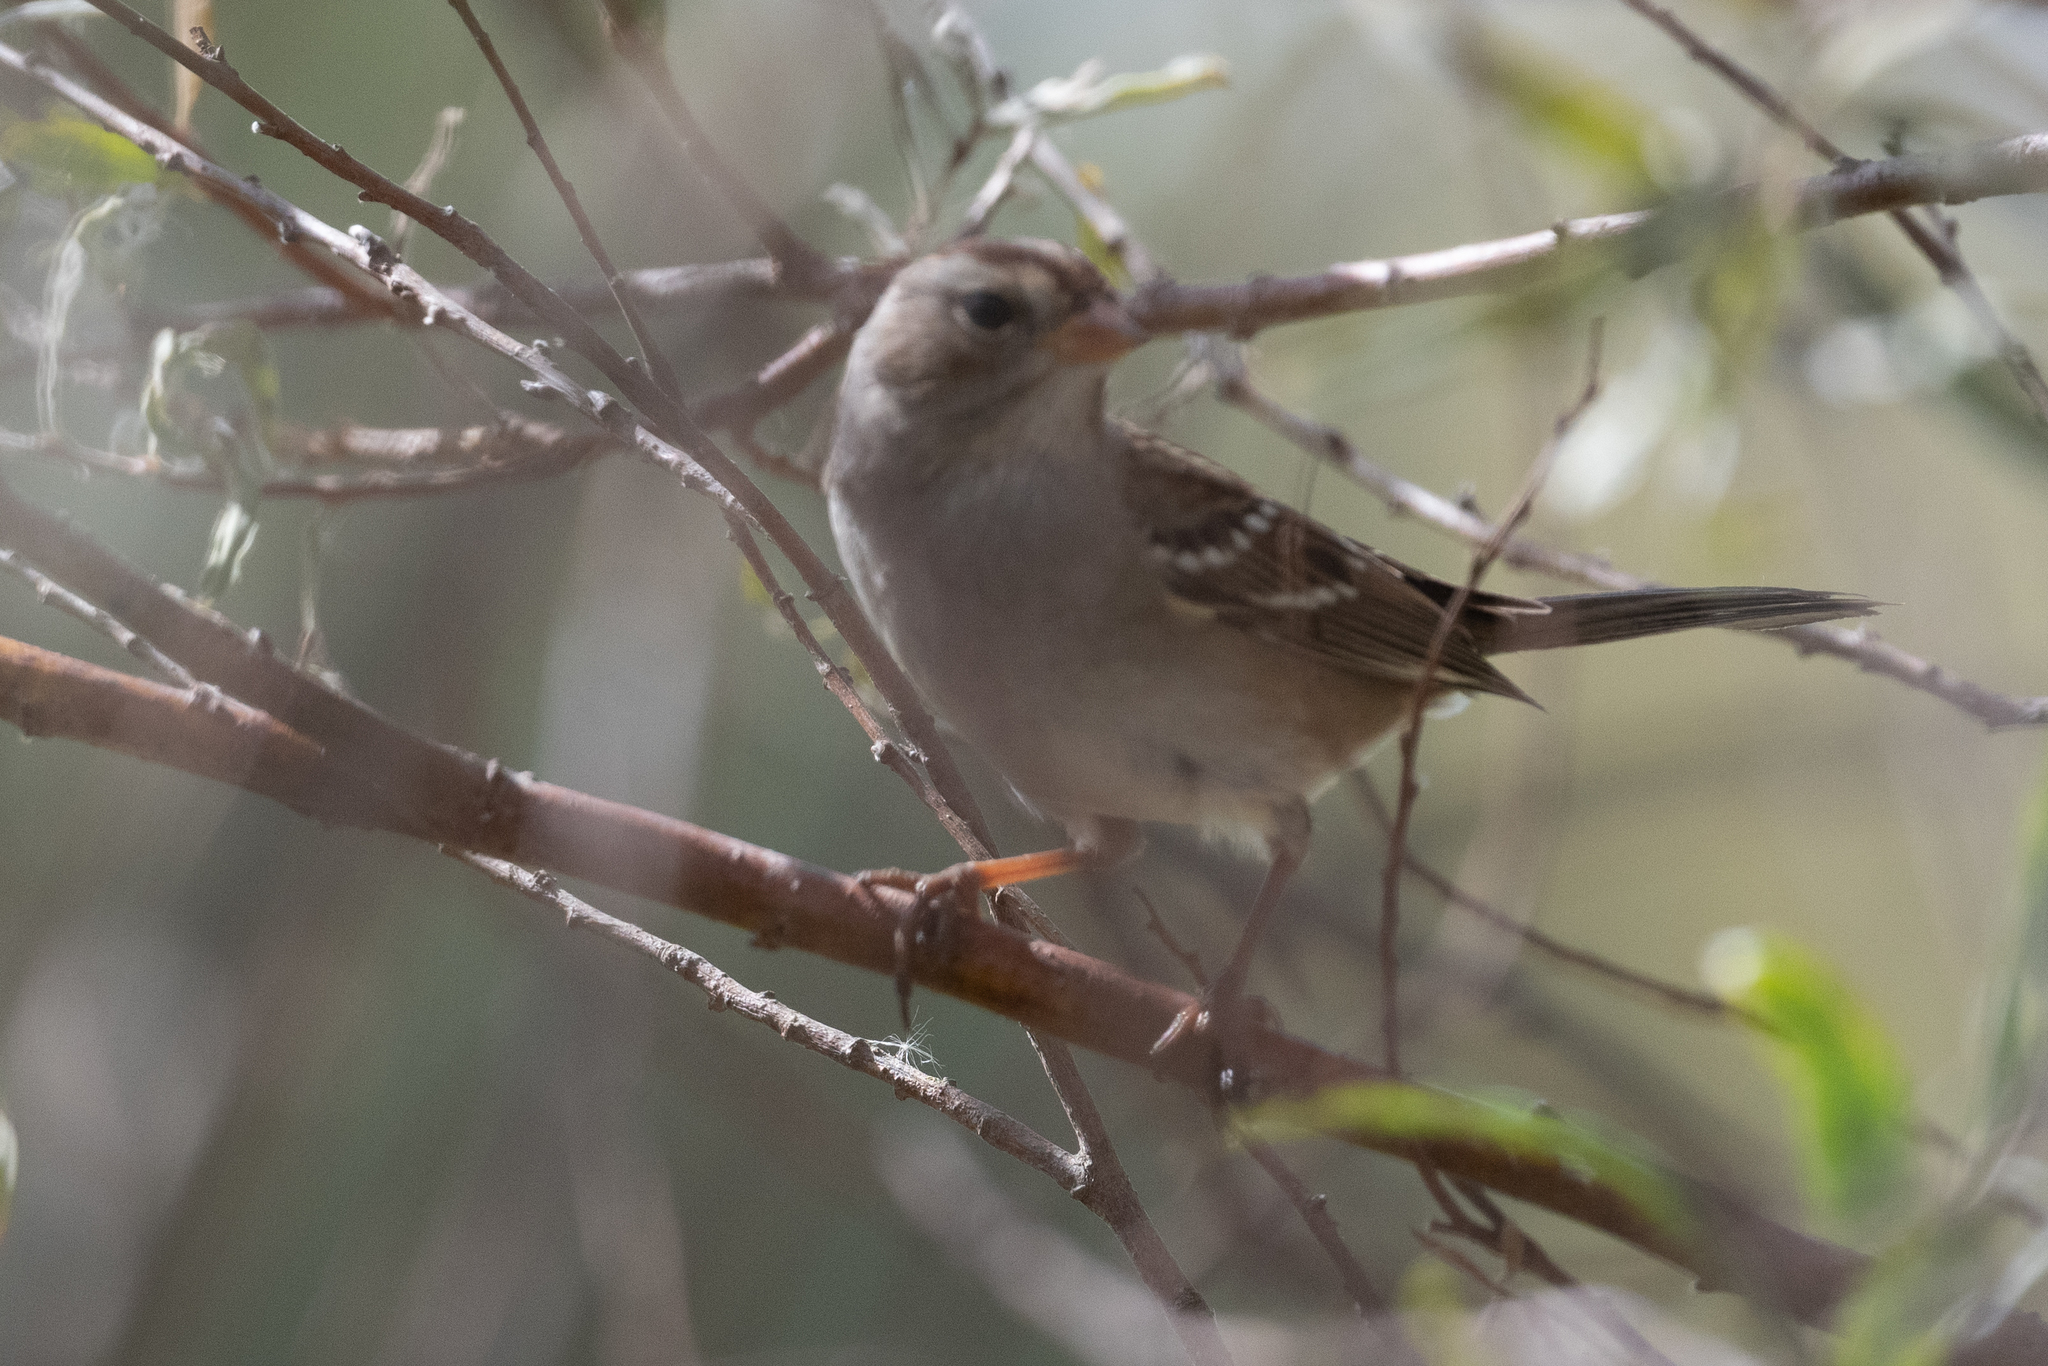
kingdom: Animalia
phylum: Chordata
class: Aves
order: Passeriformes
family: Passerellidae
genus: Zonotrichia
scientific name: Zonotrichia leucophrys
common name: White-crowned sparrow
